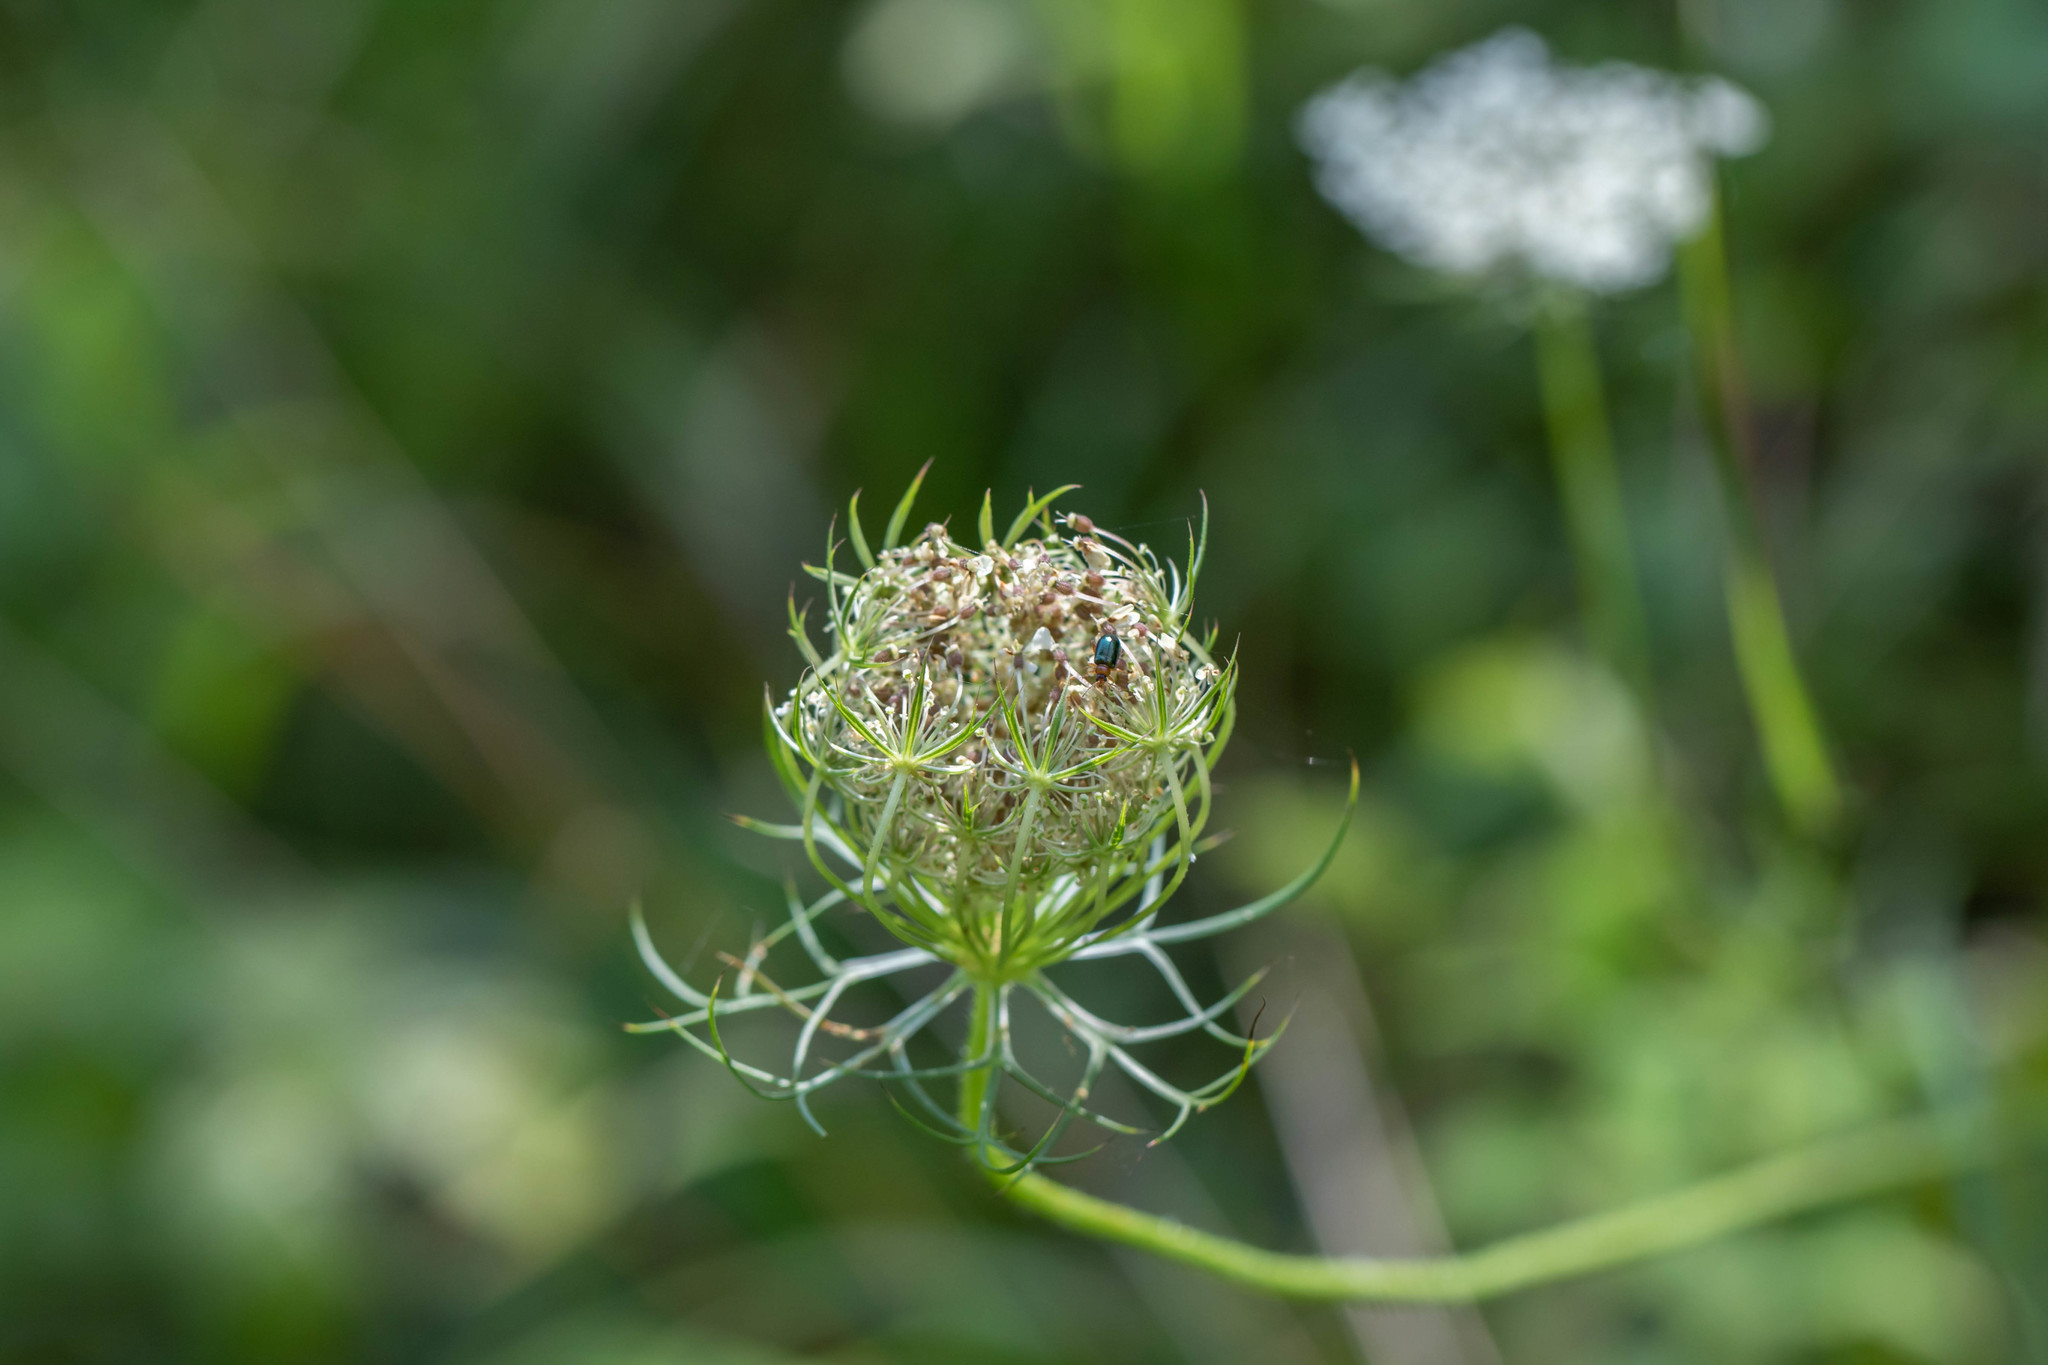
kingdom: Plantae
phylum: Tracheophyta
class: Magnoliopsida
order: Apiales
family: Apiaceae
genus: Daucus
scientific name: Daucus carota
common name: Wild carrot
